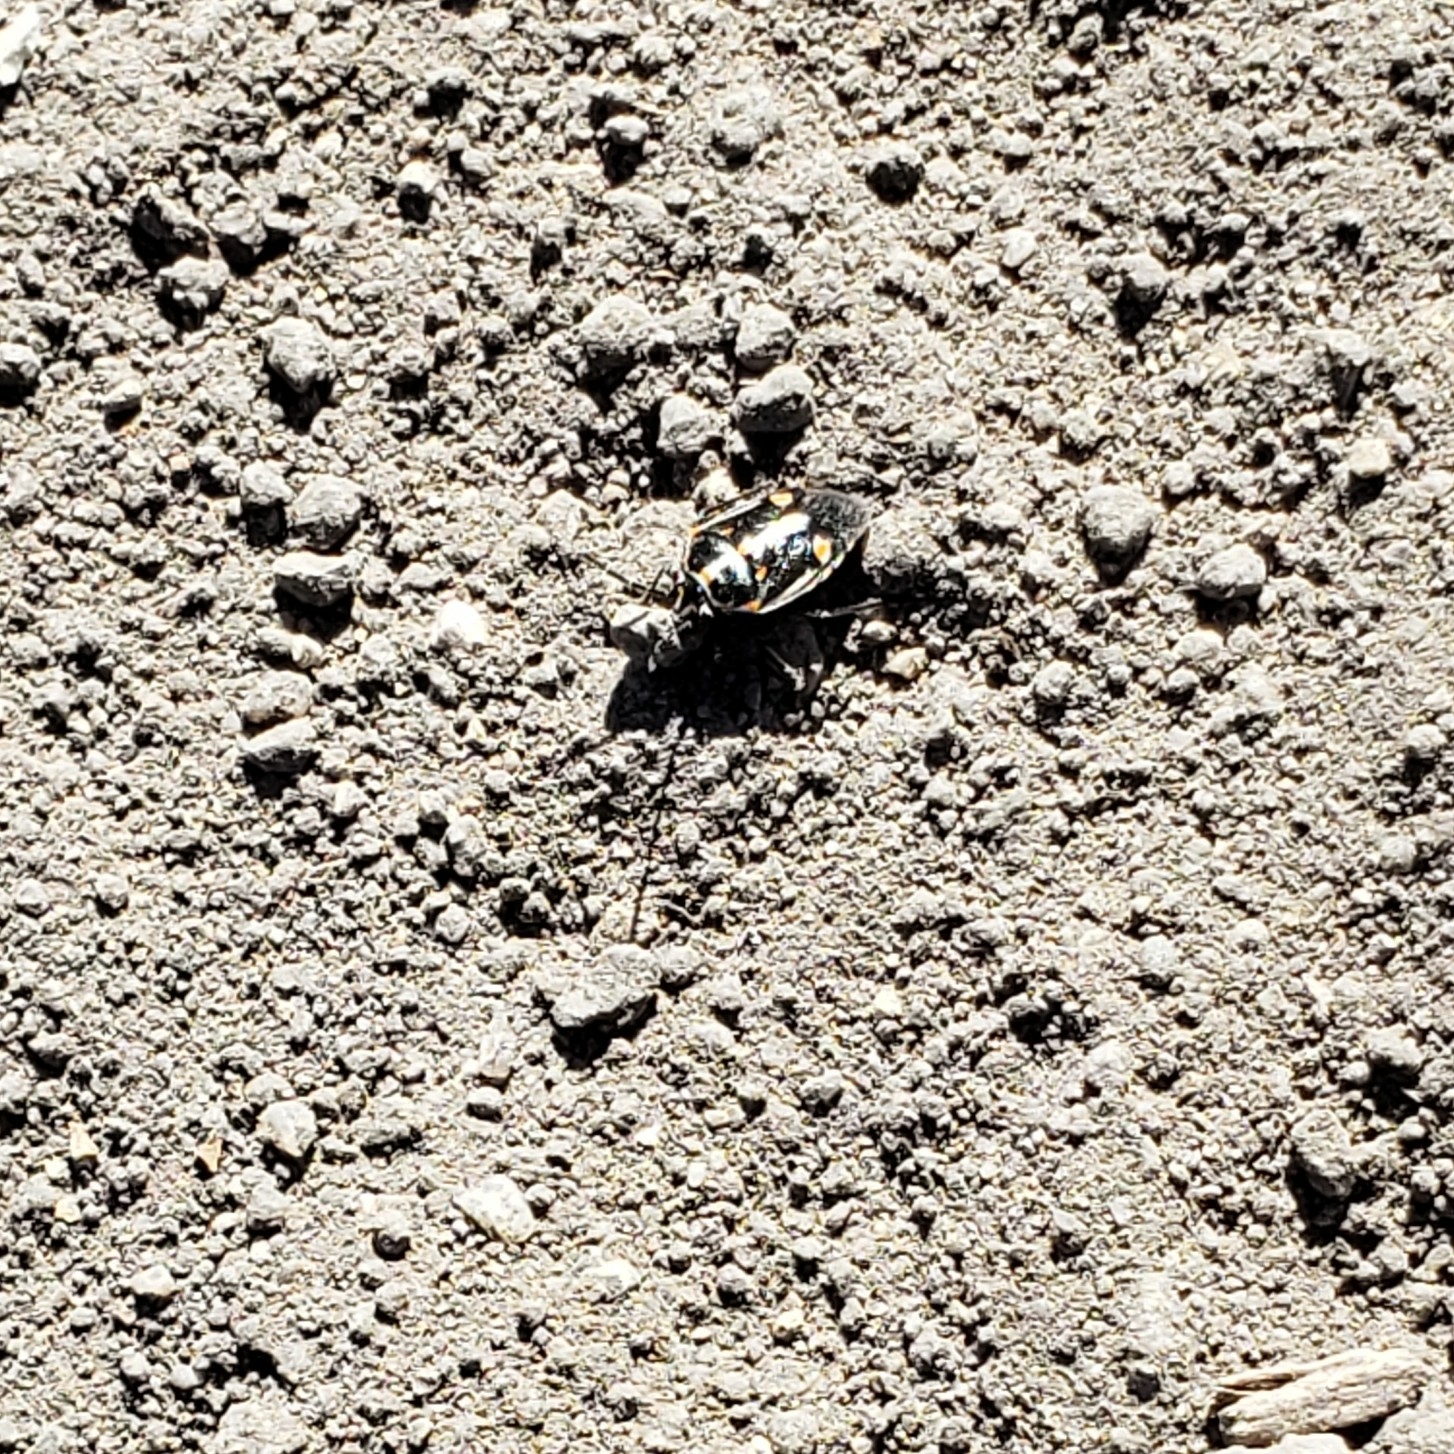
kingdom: Animalia
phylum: Arthropoda
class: Insecta
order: Hemiptera
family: Pentatomidae
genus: Bagrada
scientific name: Bagrada hilaris
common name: Bagrada bug
